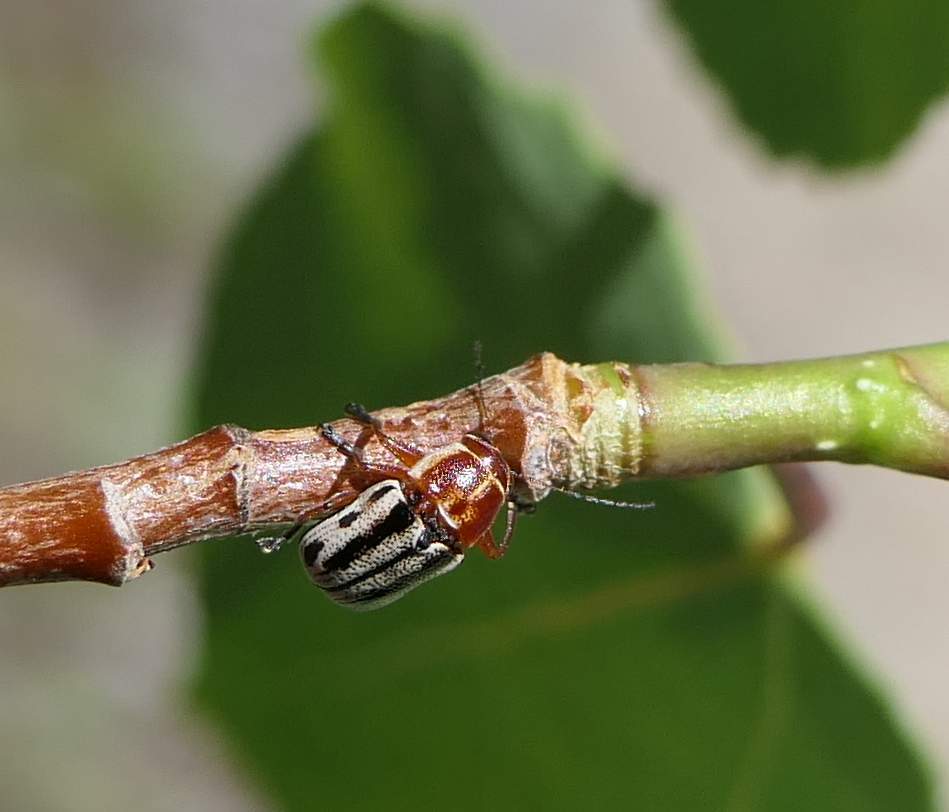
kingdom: Animalia
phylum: Arthropoda
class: Insecta
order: Coleoptera
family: Chrysomelidae
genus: Pachybrachis
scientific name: Pachybrachis bivittatus
